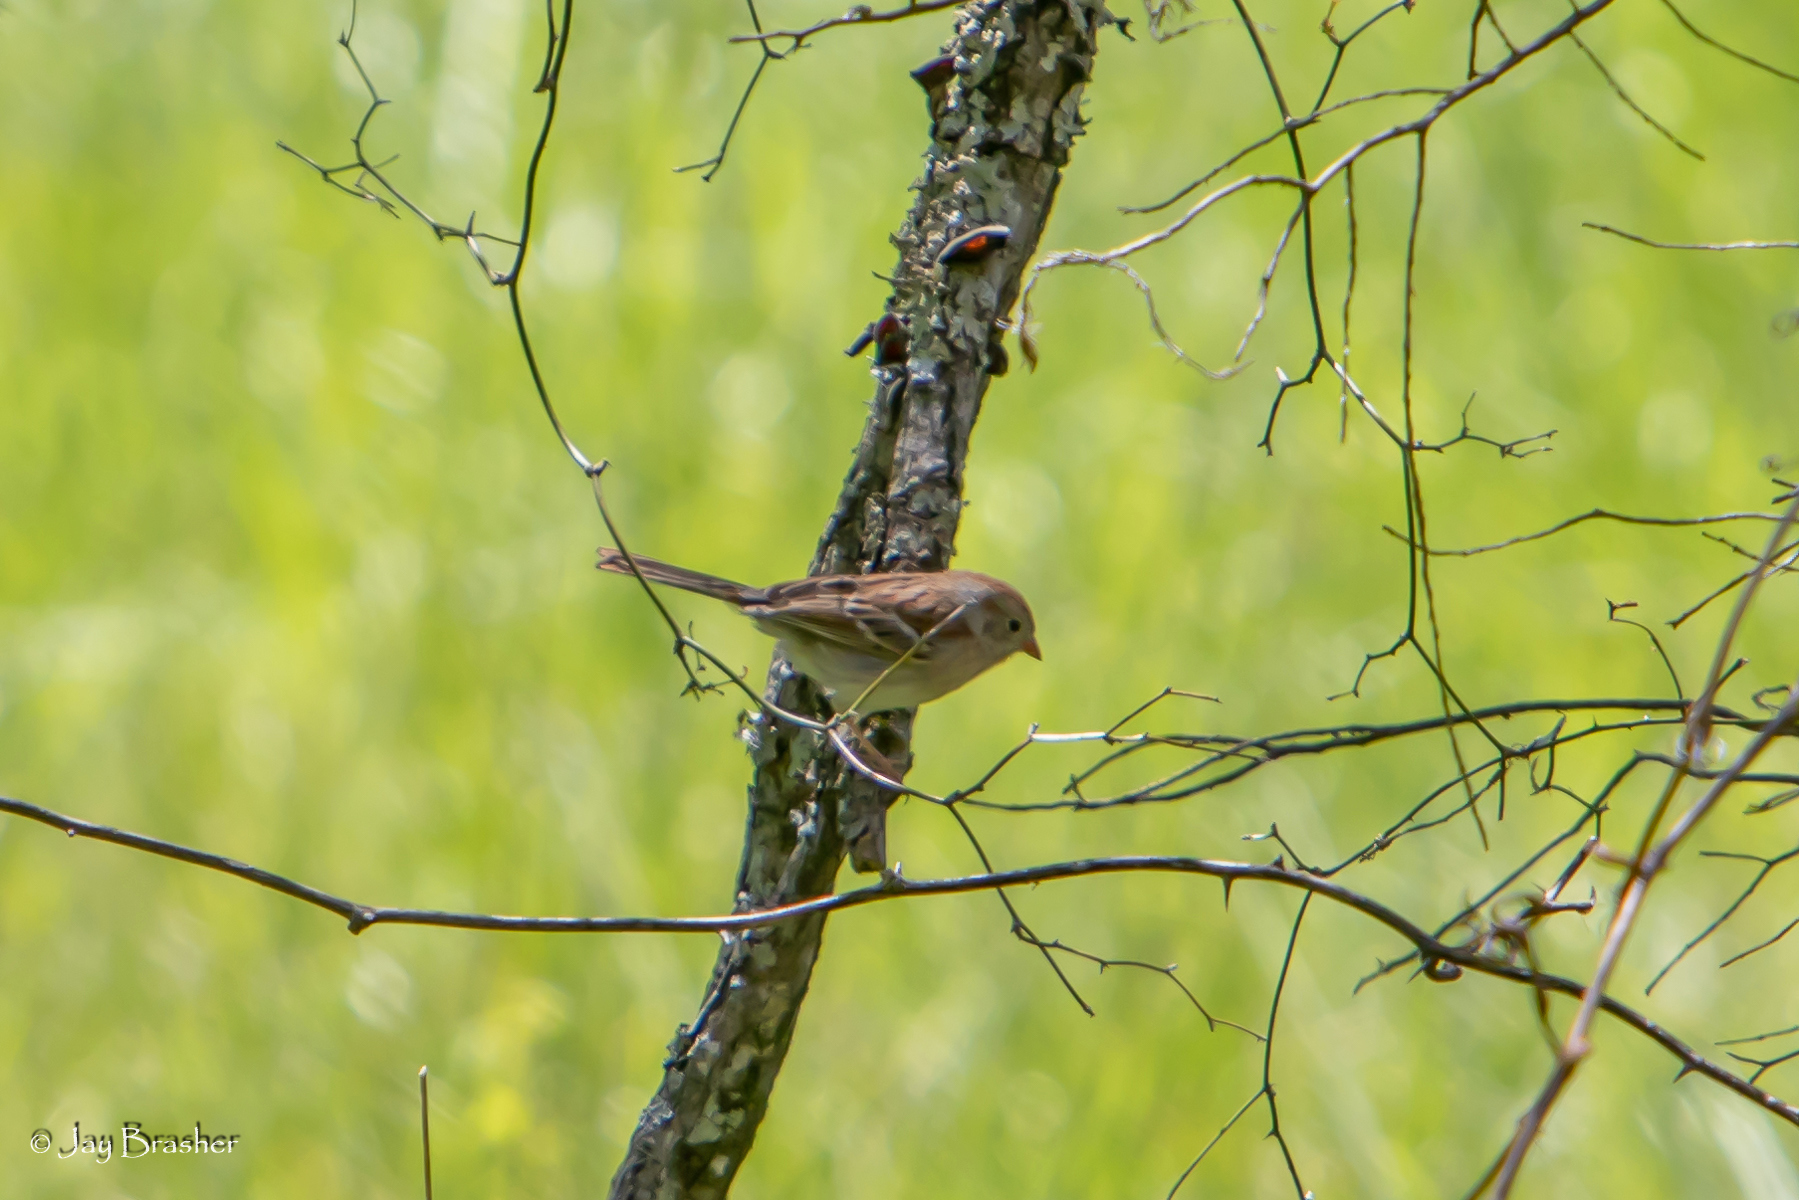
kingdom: Animalia
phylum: Chordata
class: Aves
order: Passeriformes
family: Passerellidae
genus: Spizella
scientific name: Spizella pusilla
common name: Field sparrow
